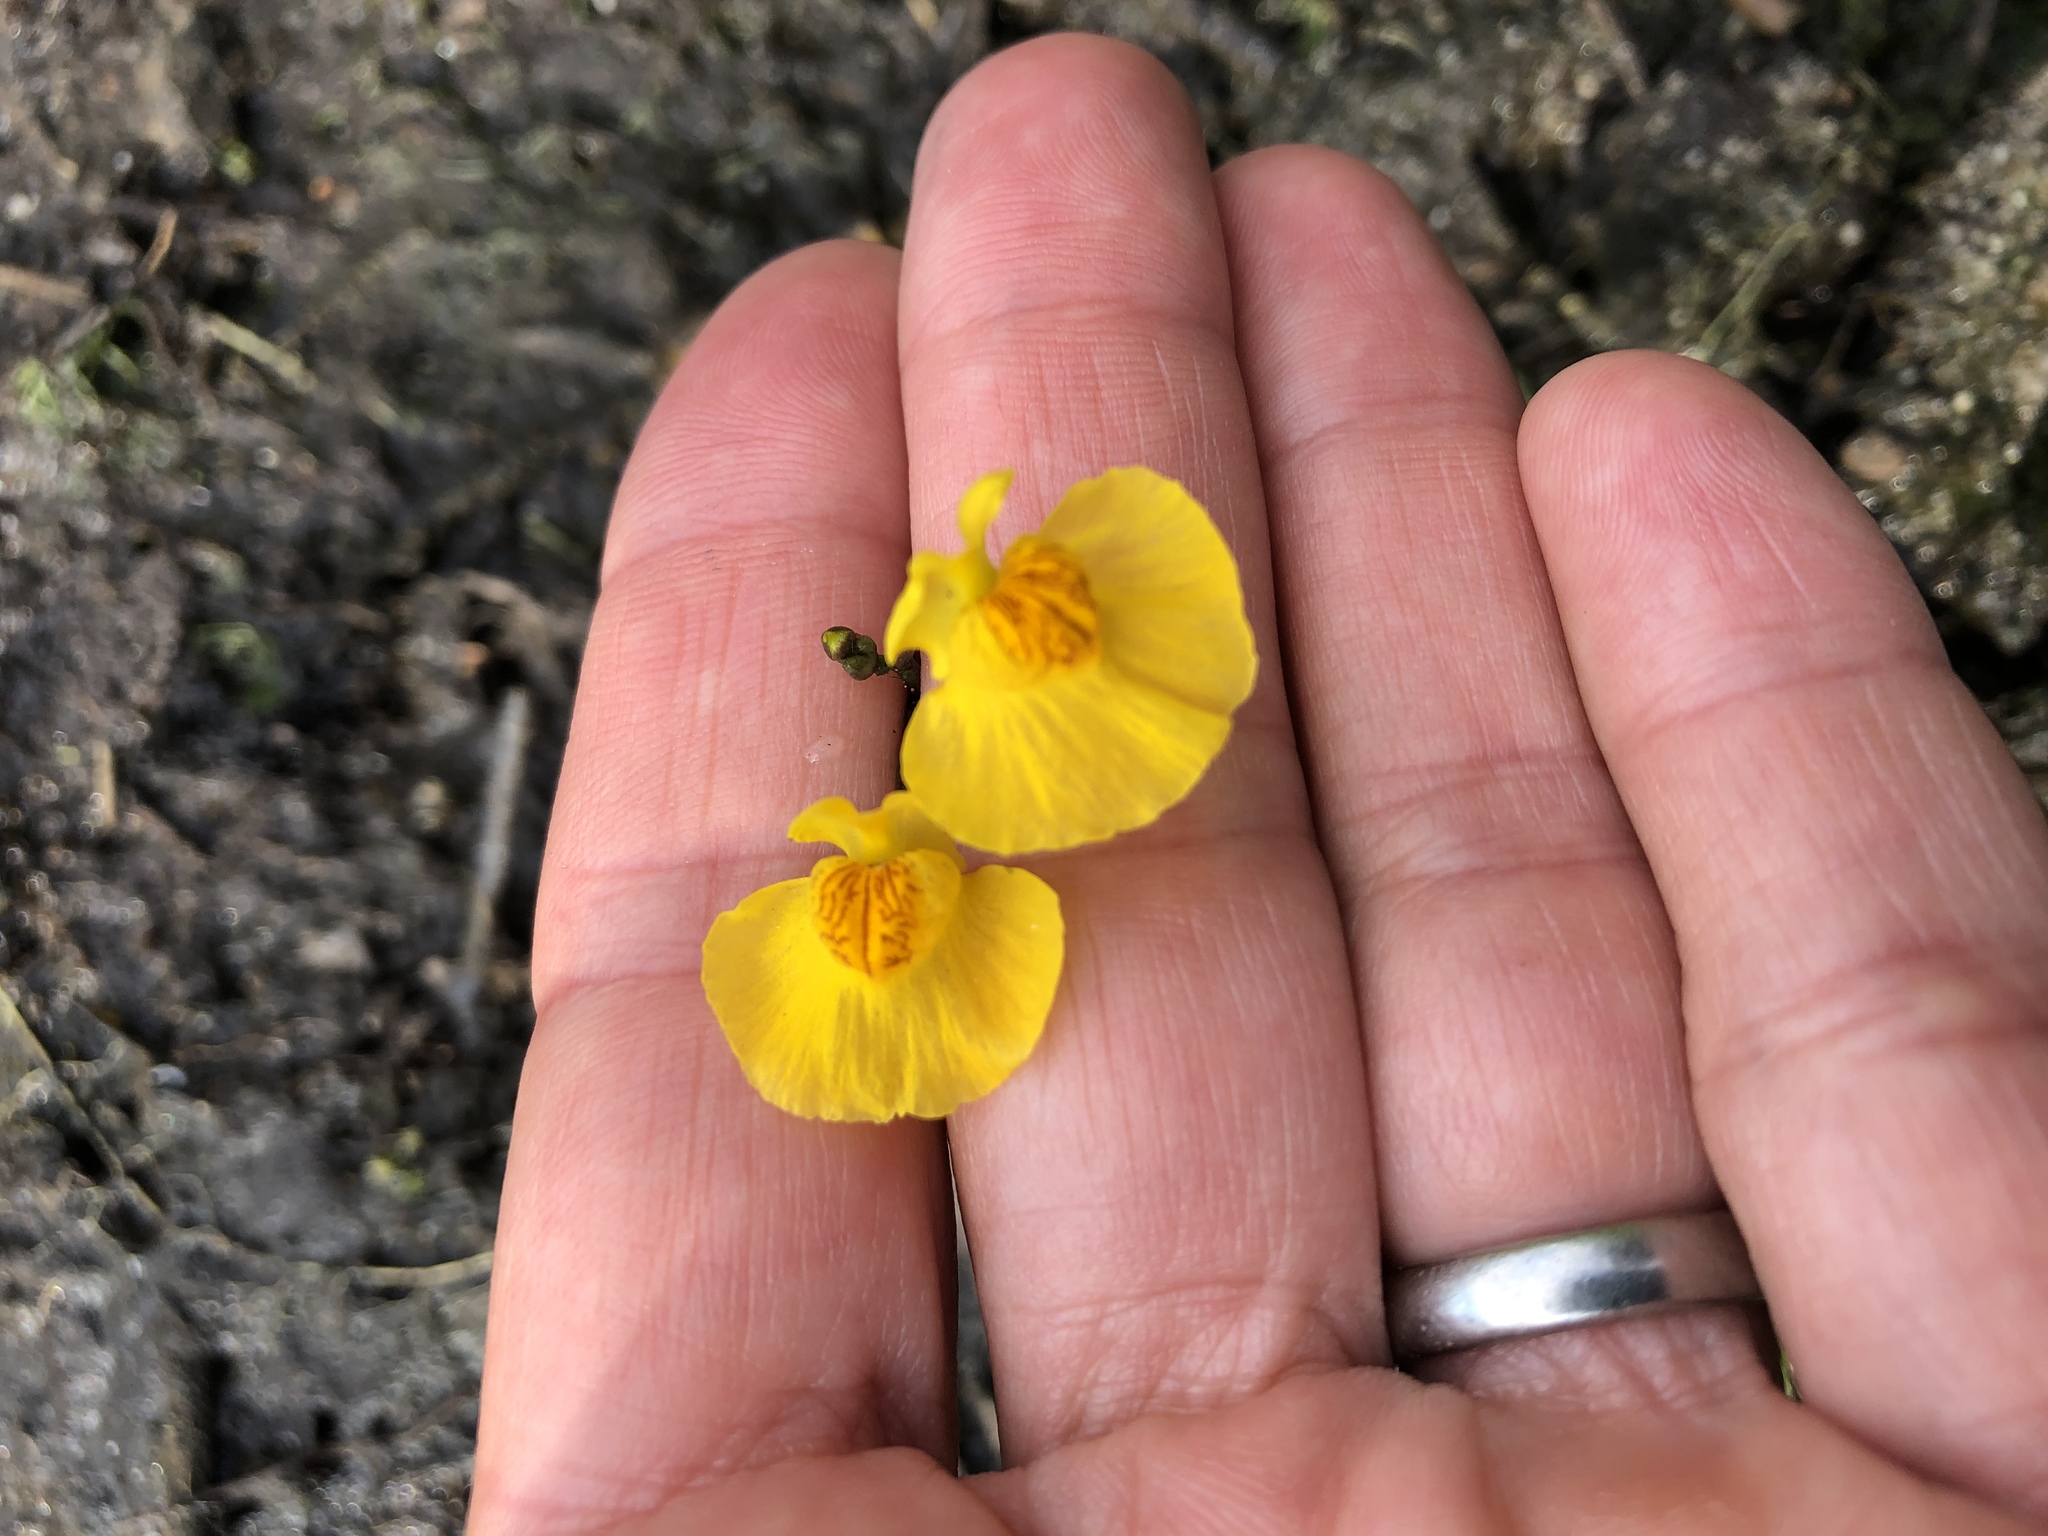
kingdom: Plantae
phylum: Tracheophyta
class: Magnoliopsida
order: Lamiales
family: Lentibulariaceae
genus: Utricularia
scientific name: Utricularia australis
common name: Bladderwort
